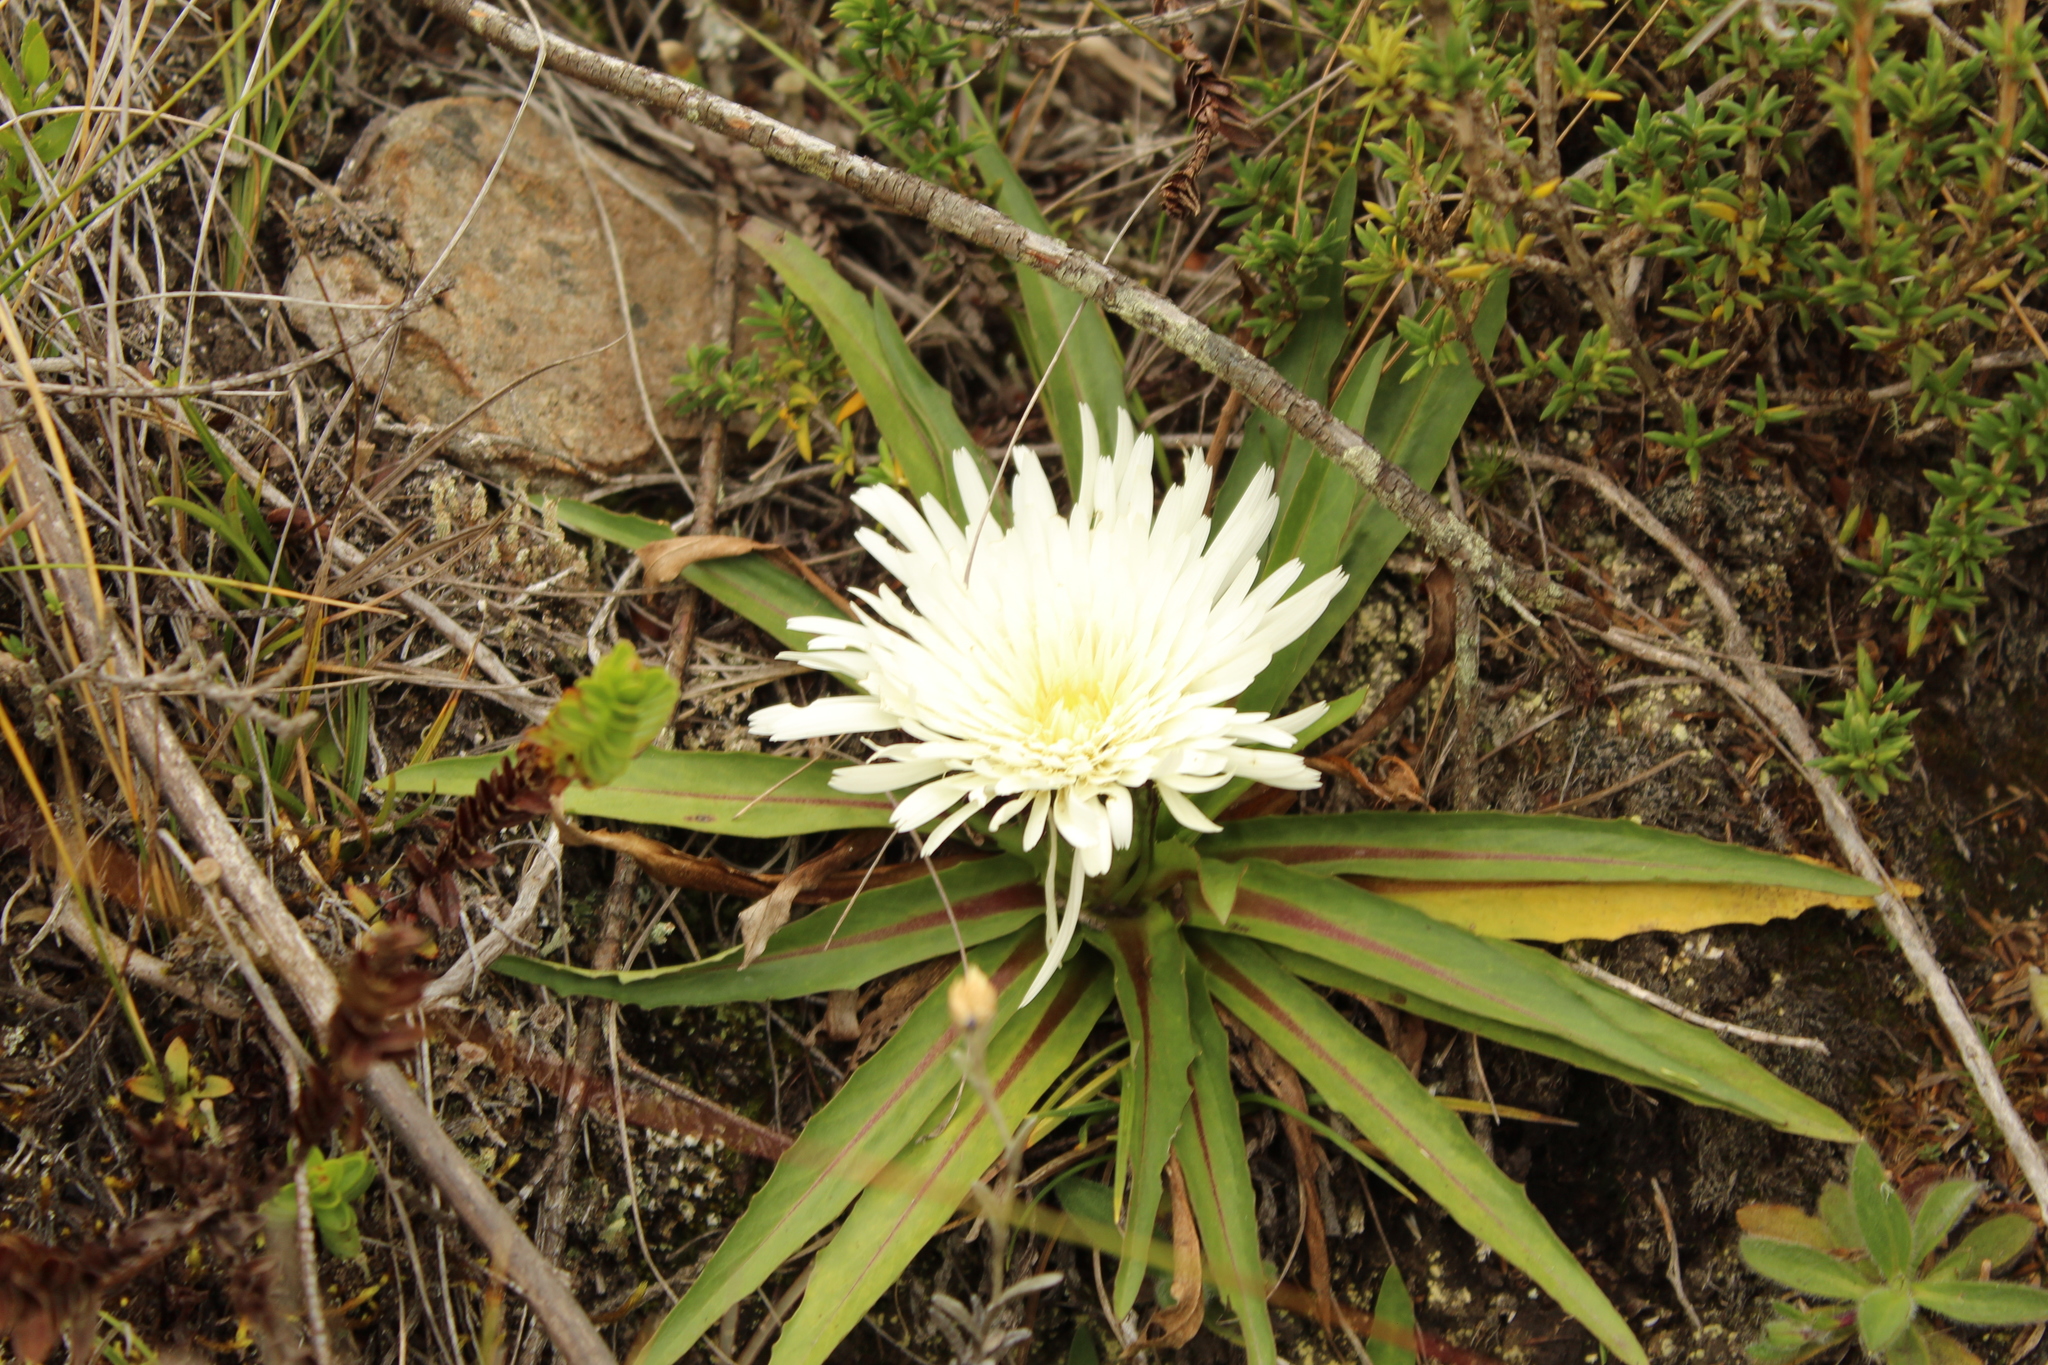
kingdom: Plantae
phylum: Tracheophyta
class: Magnoliopsida
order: Asterales
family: Asteraceae
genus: Hypochaeris
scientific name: Hypochaeris sessiliflora
